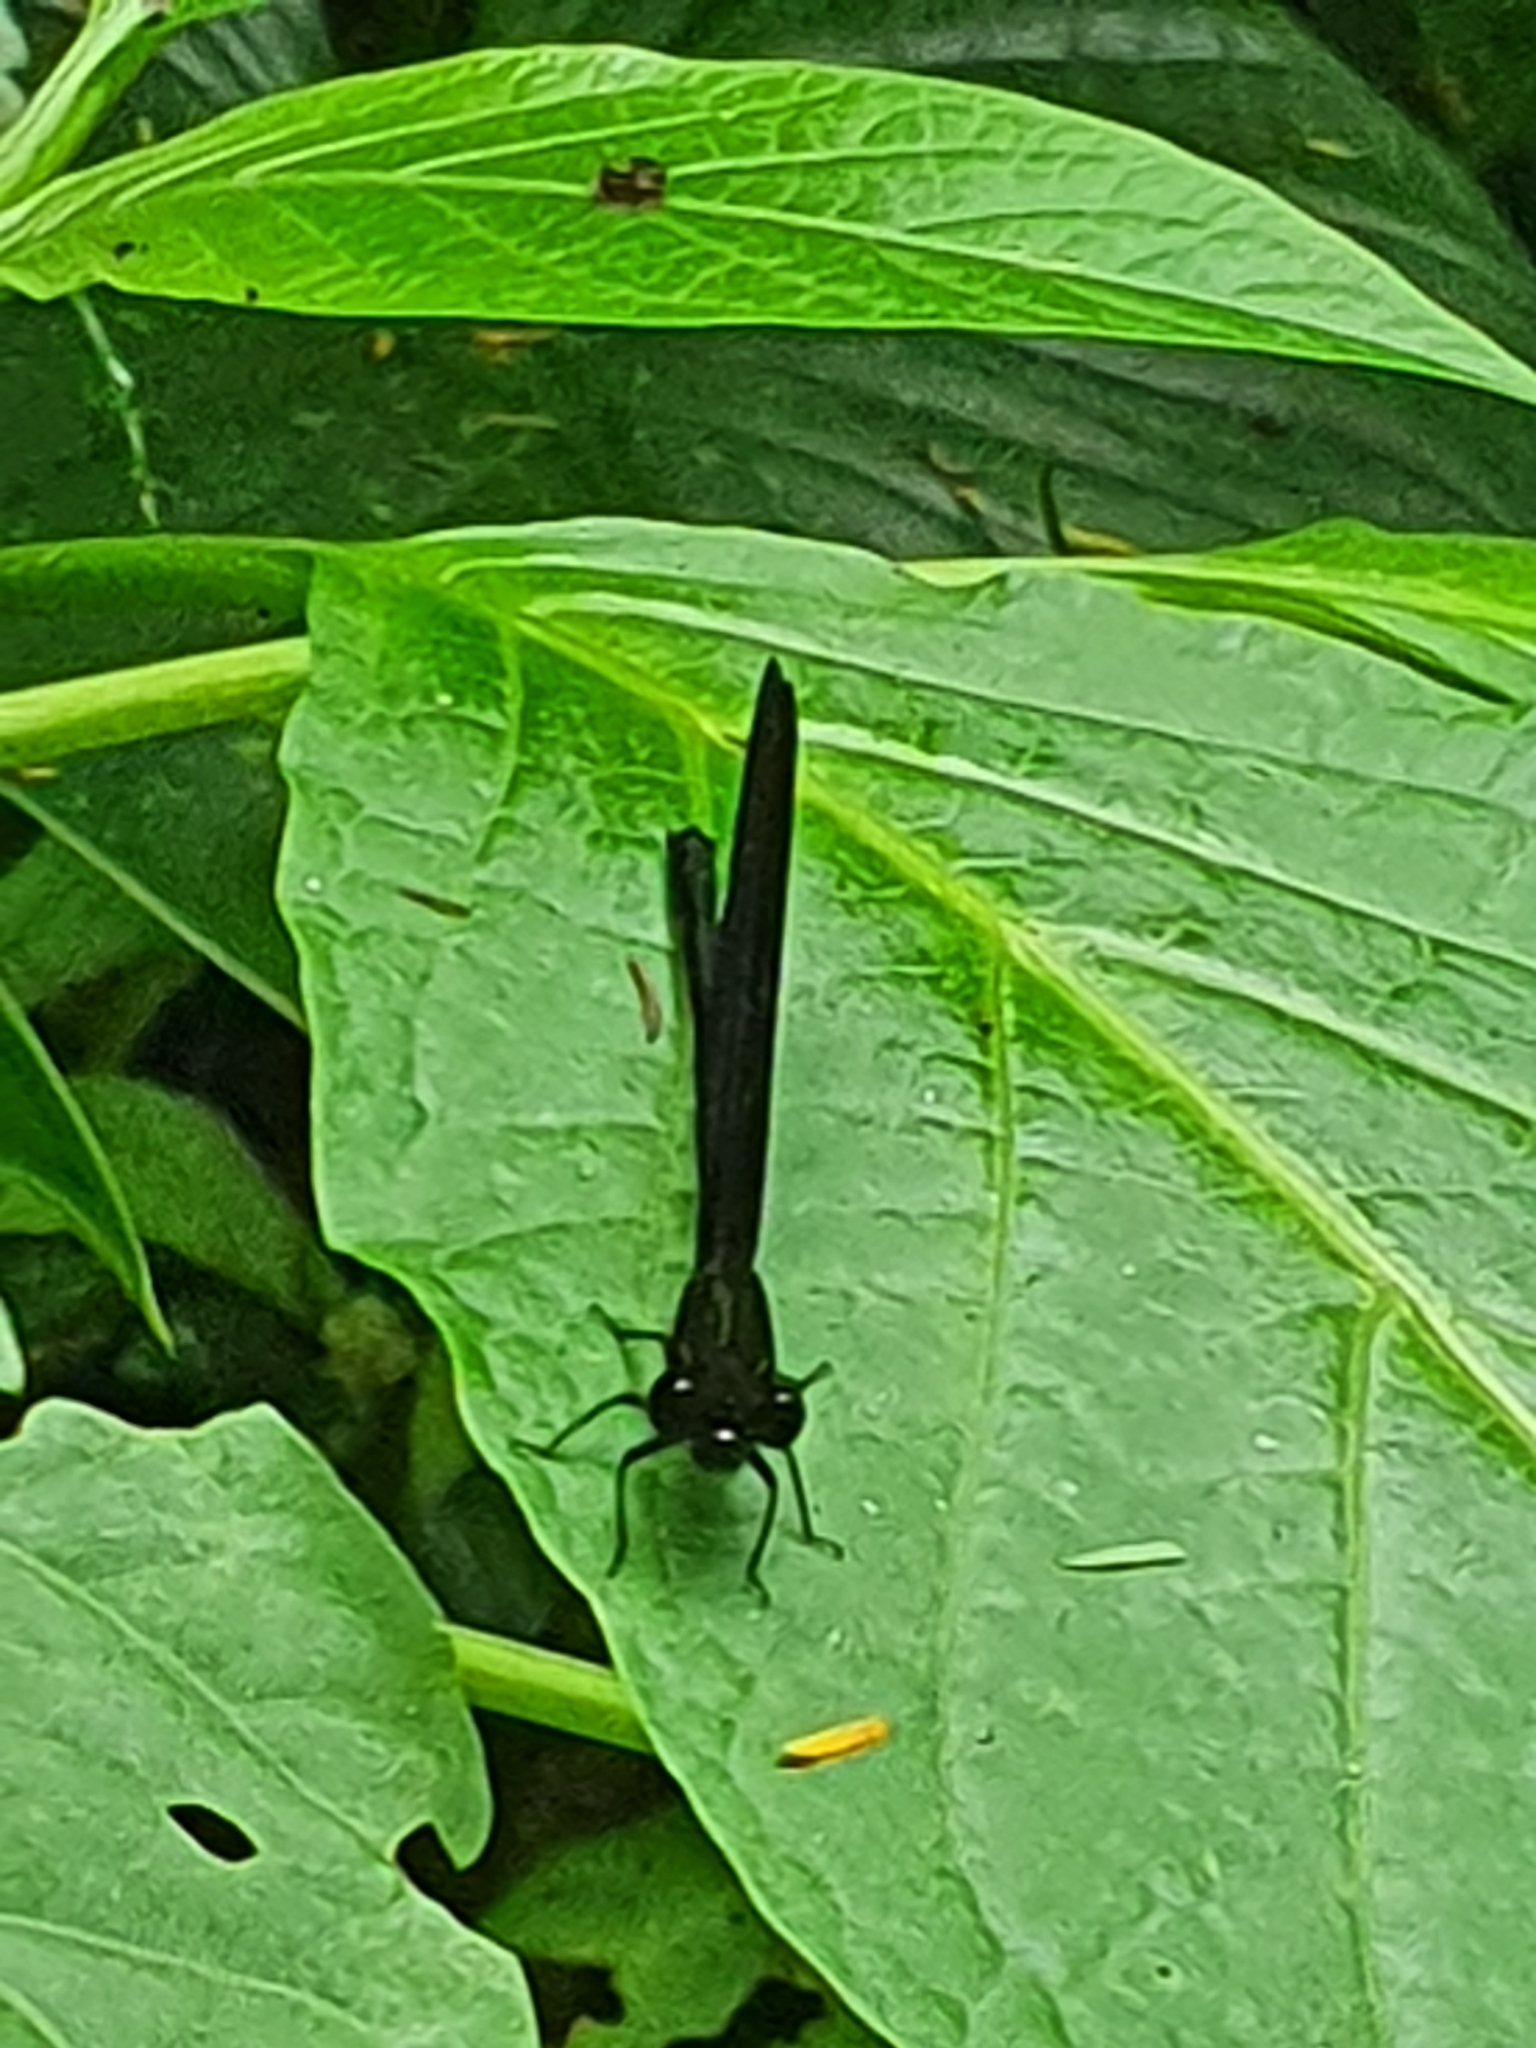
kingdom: Animalia
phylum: Arthropoda
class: Insecta
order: Odonata
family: Euphaeidae
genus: Euphaea
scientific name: Euphaea variegata
